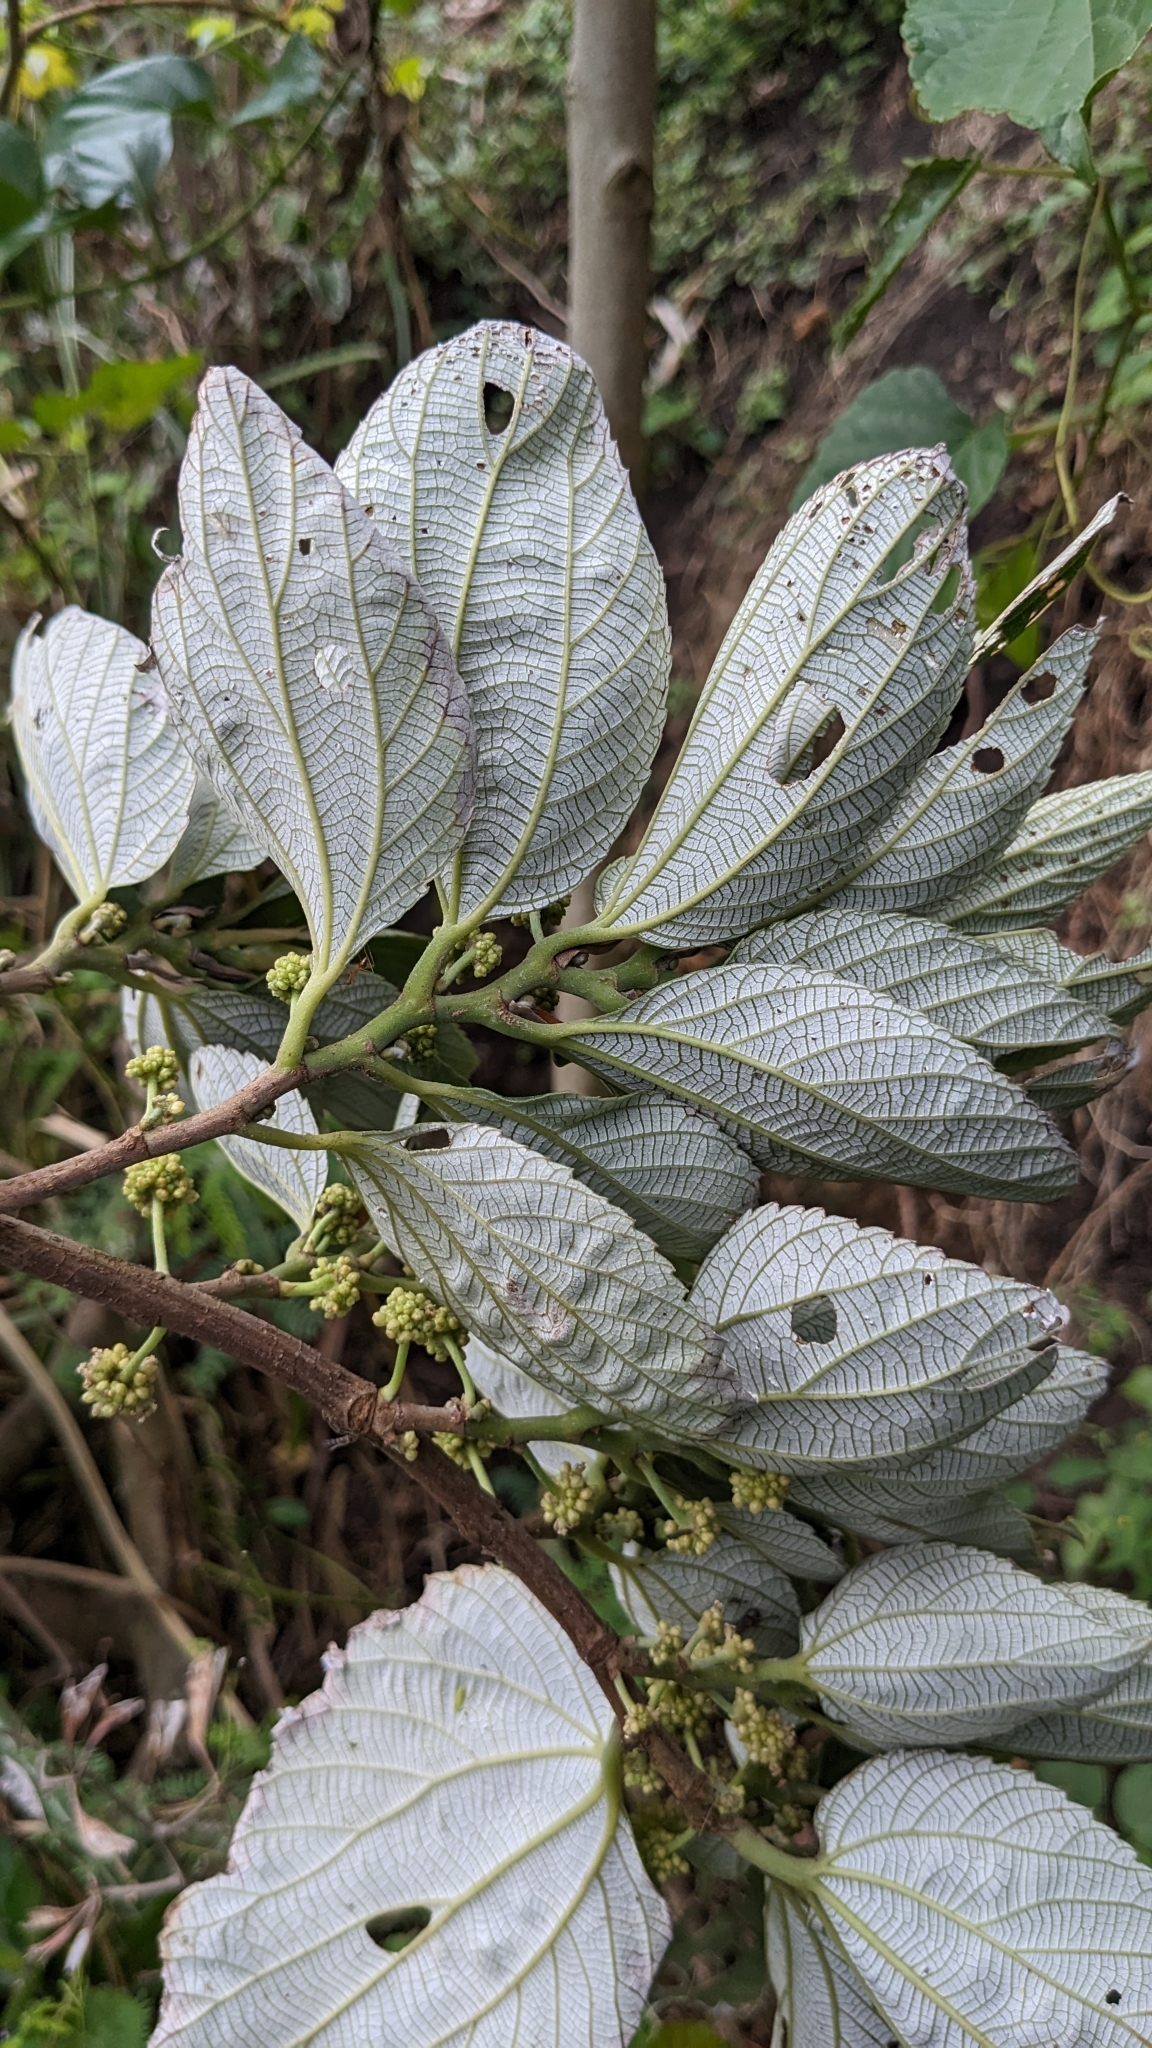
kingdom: Plantae
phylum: Tracheophyta
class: Magnoliopsida
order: Rosales
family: Urticaceae
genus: Leucosyke
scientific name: Leucosyke quadrinervia
